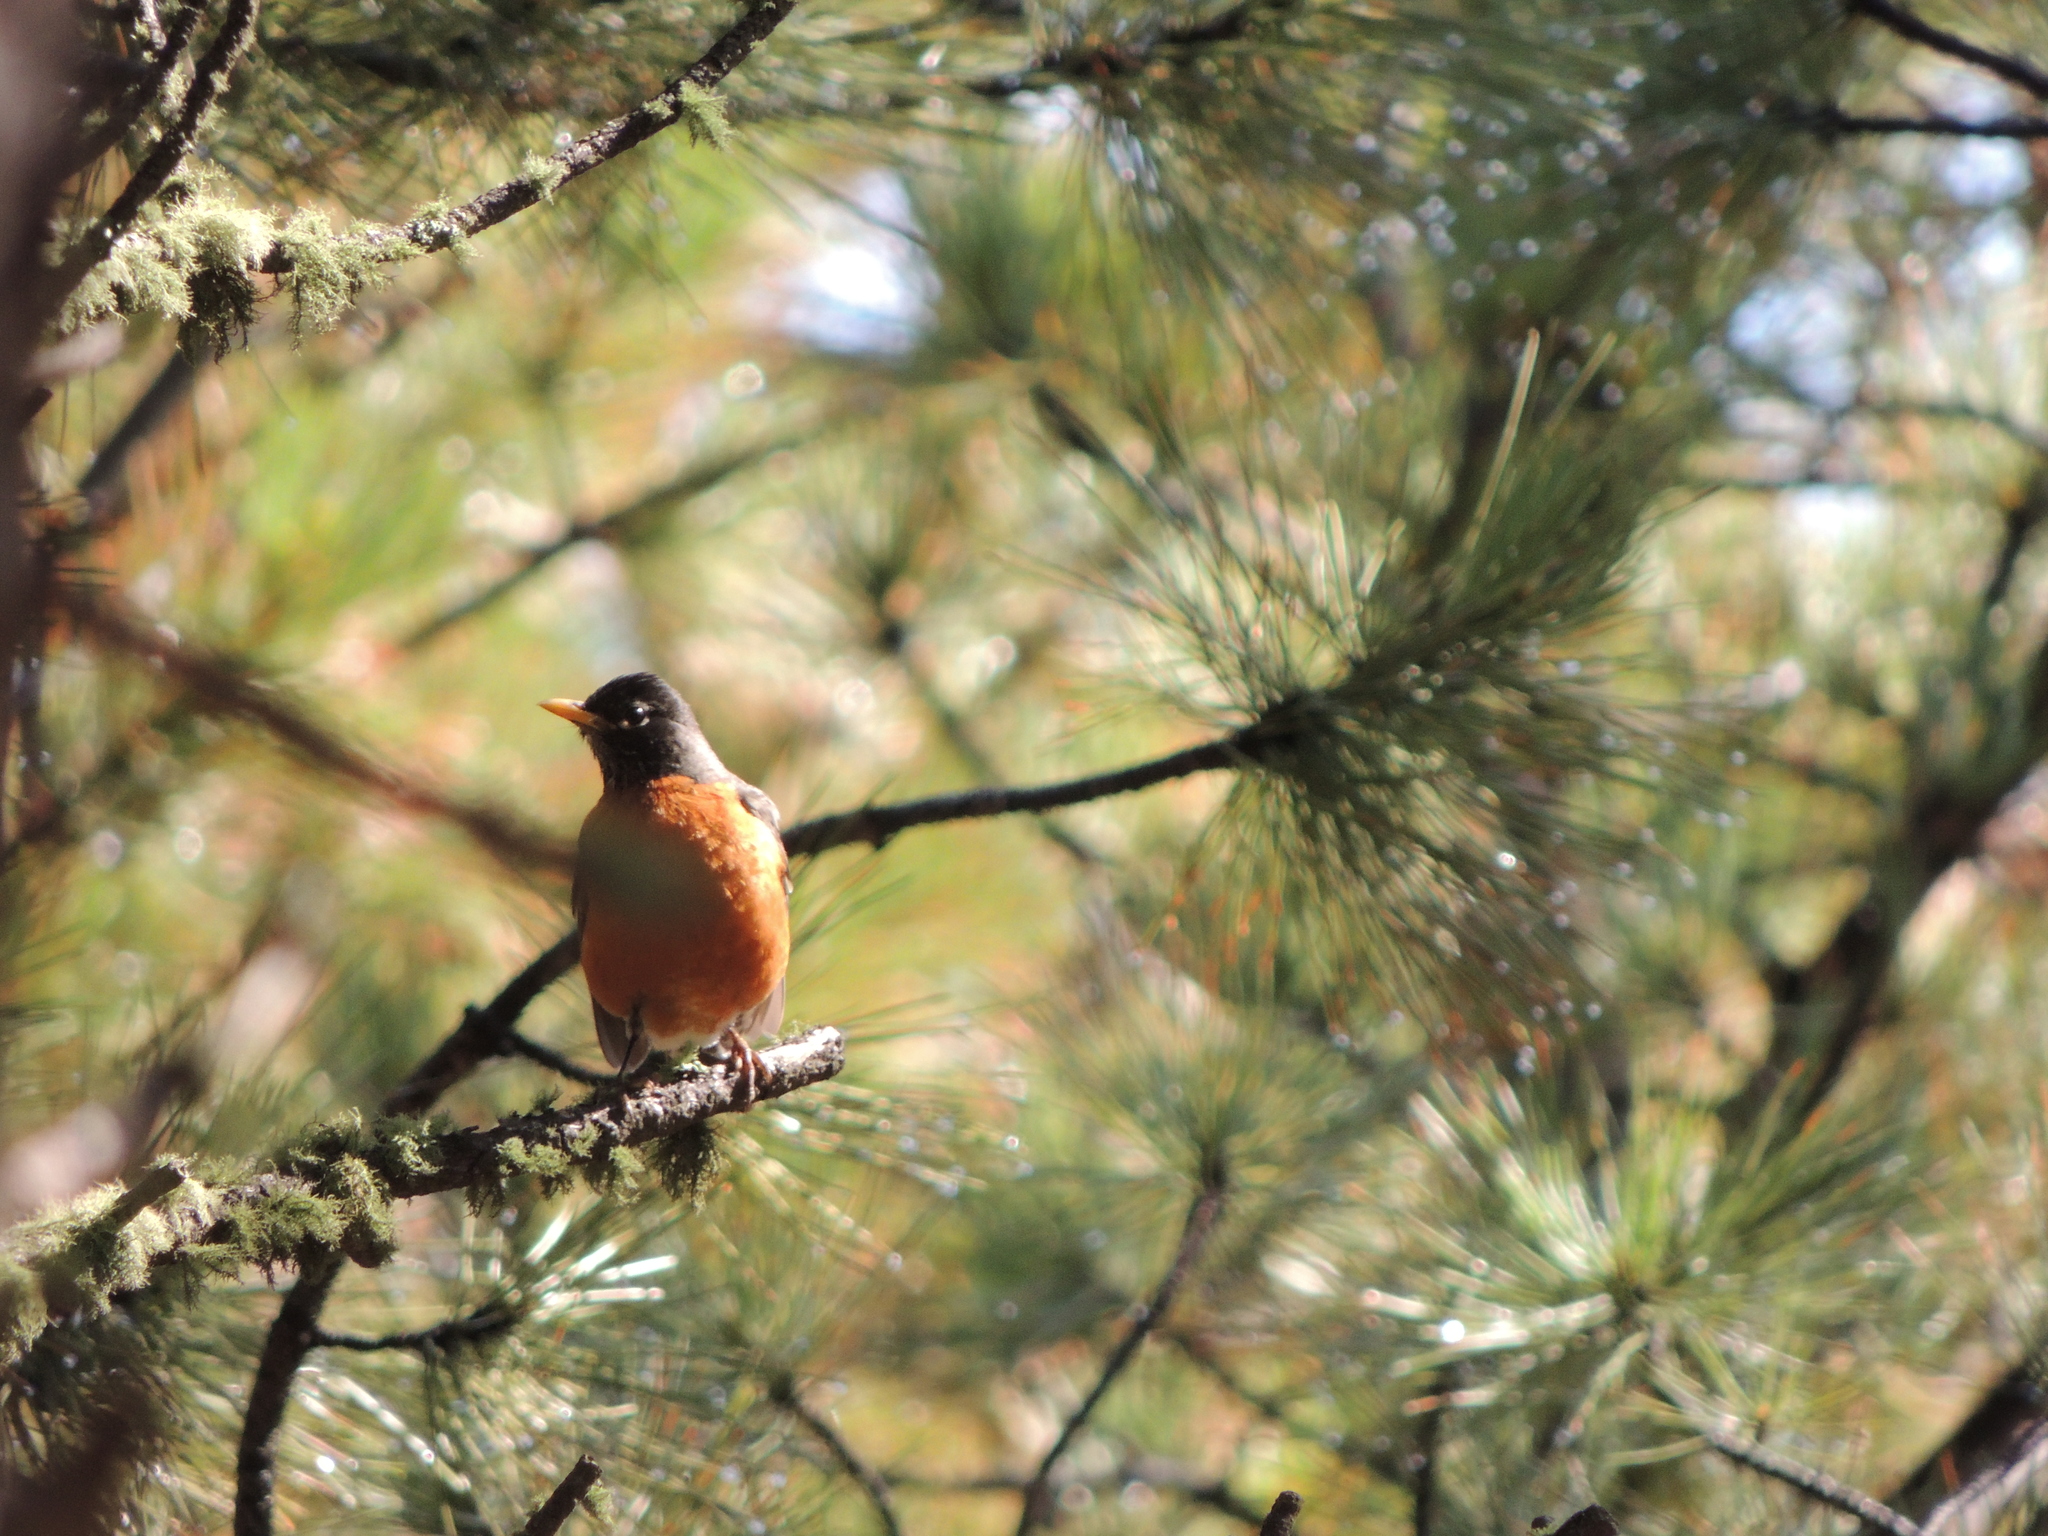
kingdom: Animalia
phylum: Chordata
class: Aves
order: Passeriformes
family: Turdidae
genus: Turdus
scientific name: Turdus migratorius
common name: American robin
